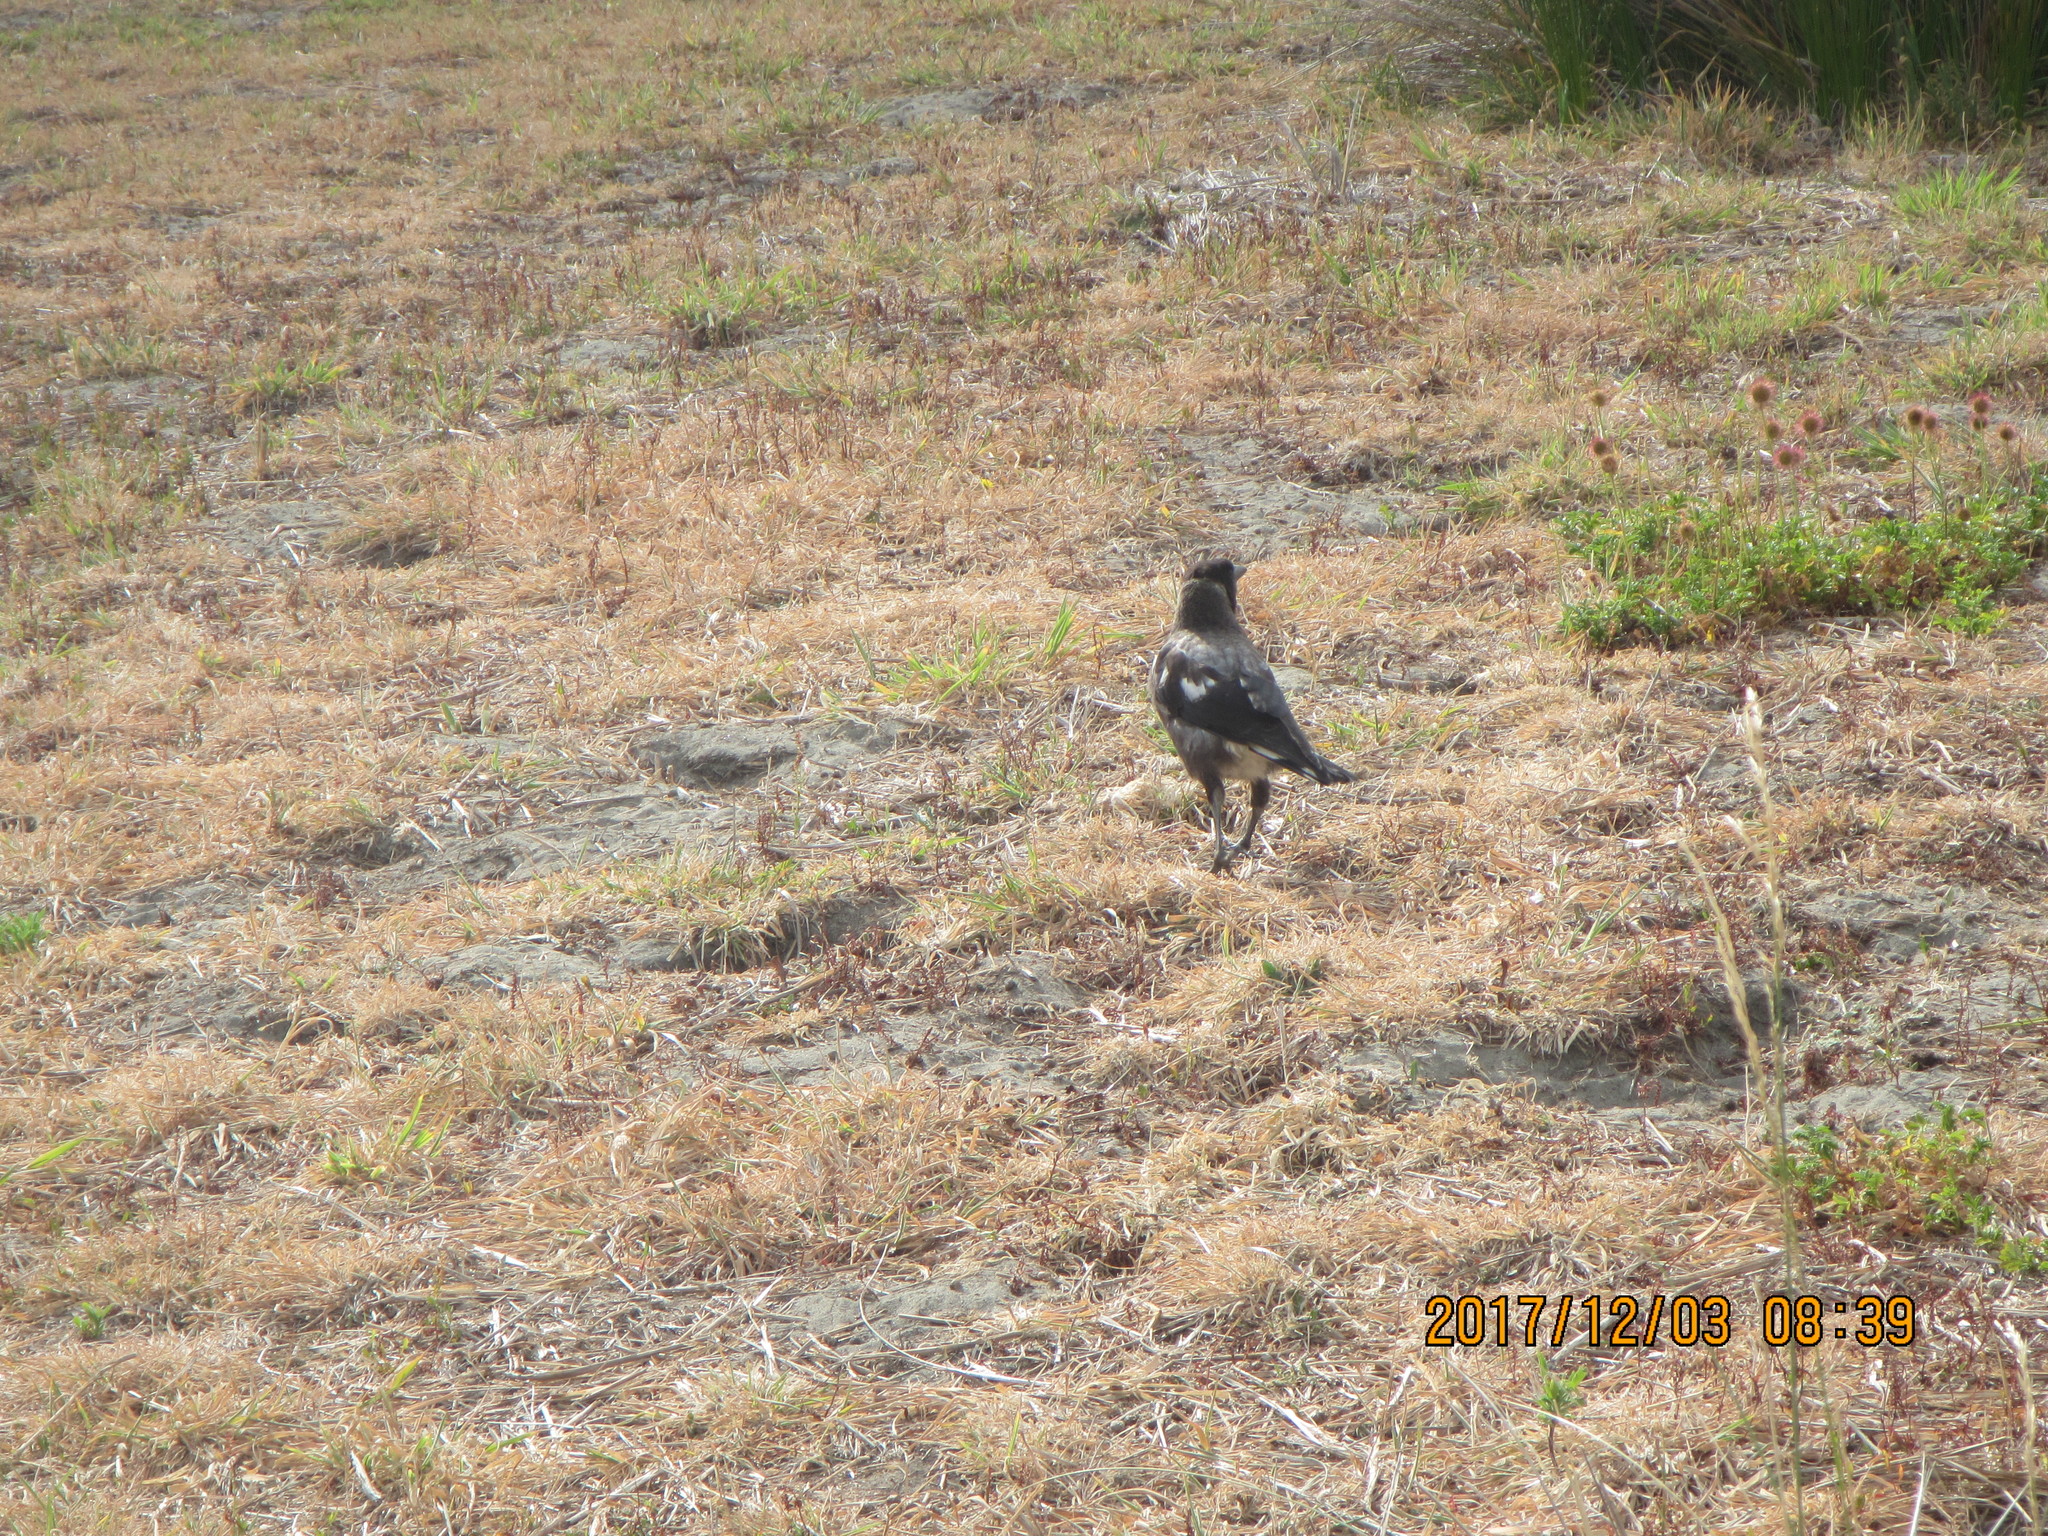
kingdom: Animalia
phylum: Chordata
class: Aves
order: Passeriformes
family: Cracticidae
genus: Gymnorhina
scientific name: Gymnorhina tibicen
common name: Australian magpie
